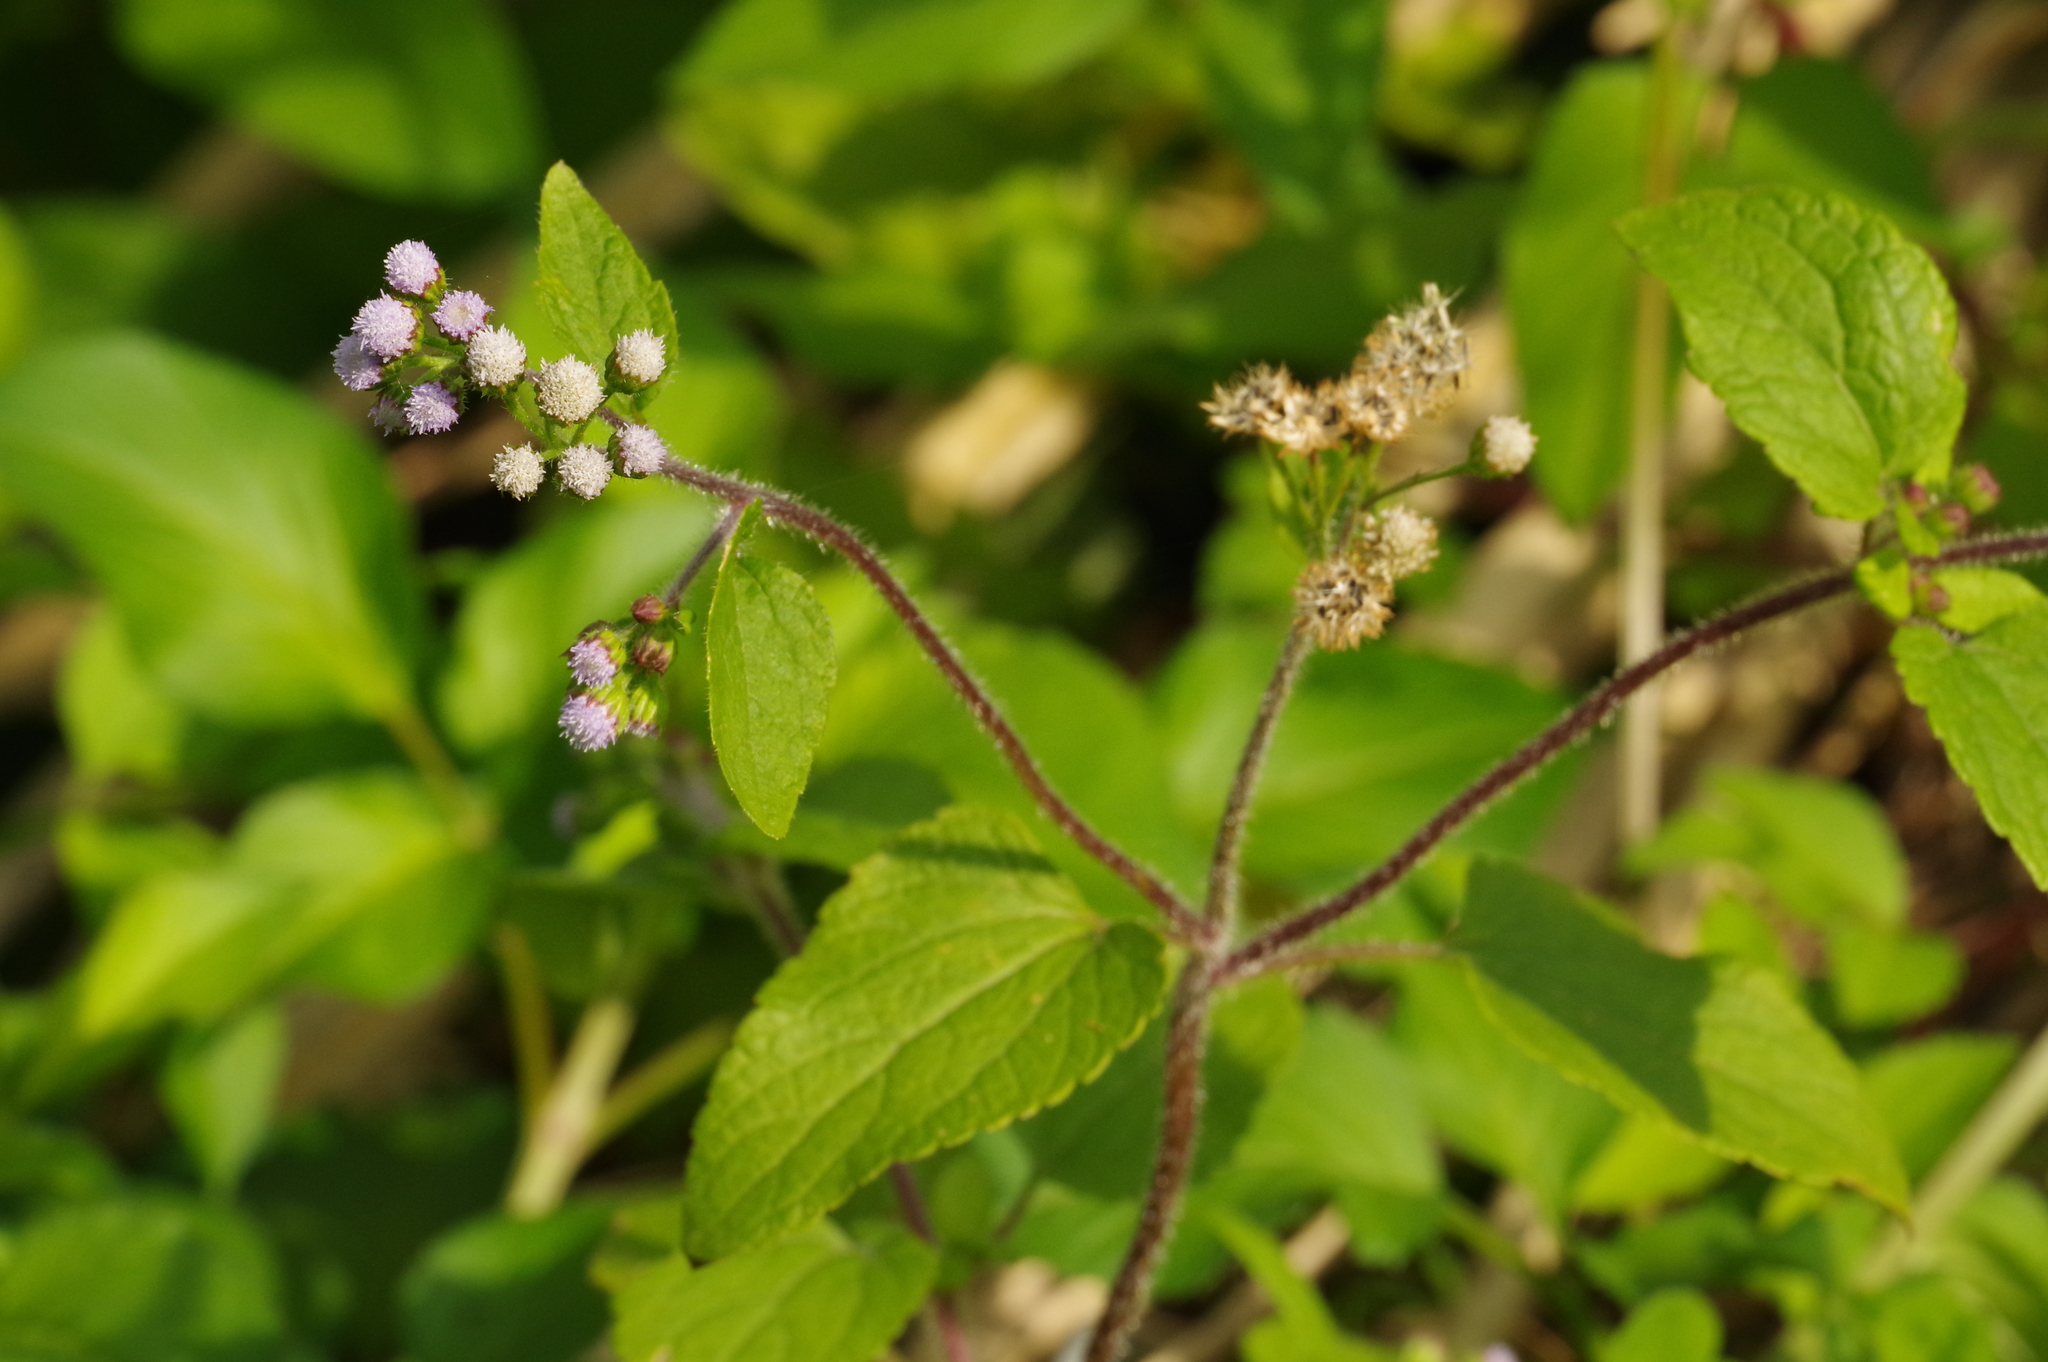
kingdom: Plantae
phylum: Tracheophyta
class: Magnoliopsida
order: Asterales
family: Asteraceae
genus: Ageratum
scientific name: Ageratum conyzoides
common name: Tropical whiteweed
